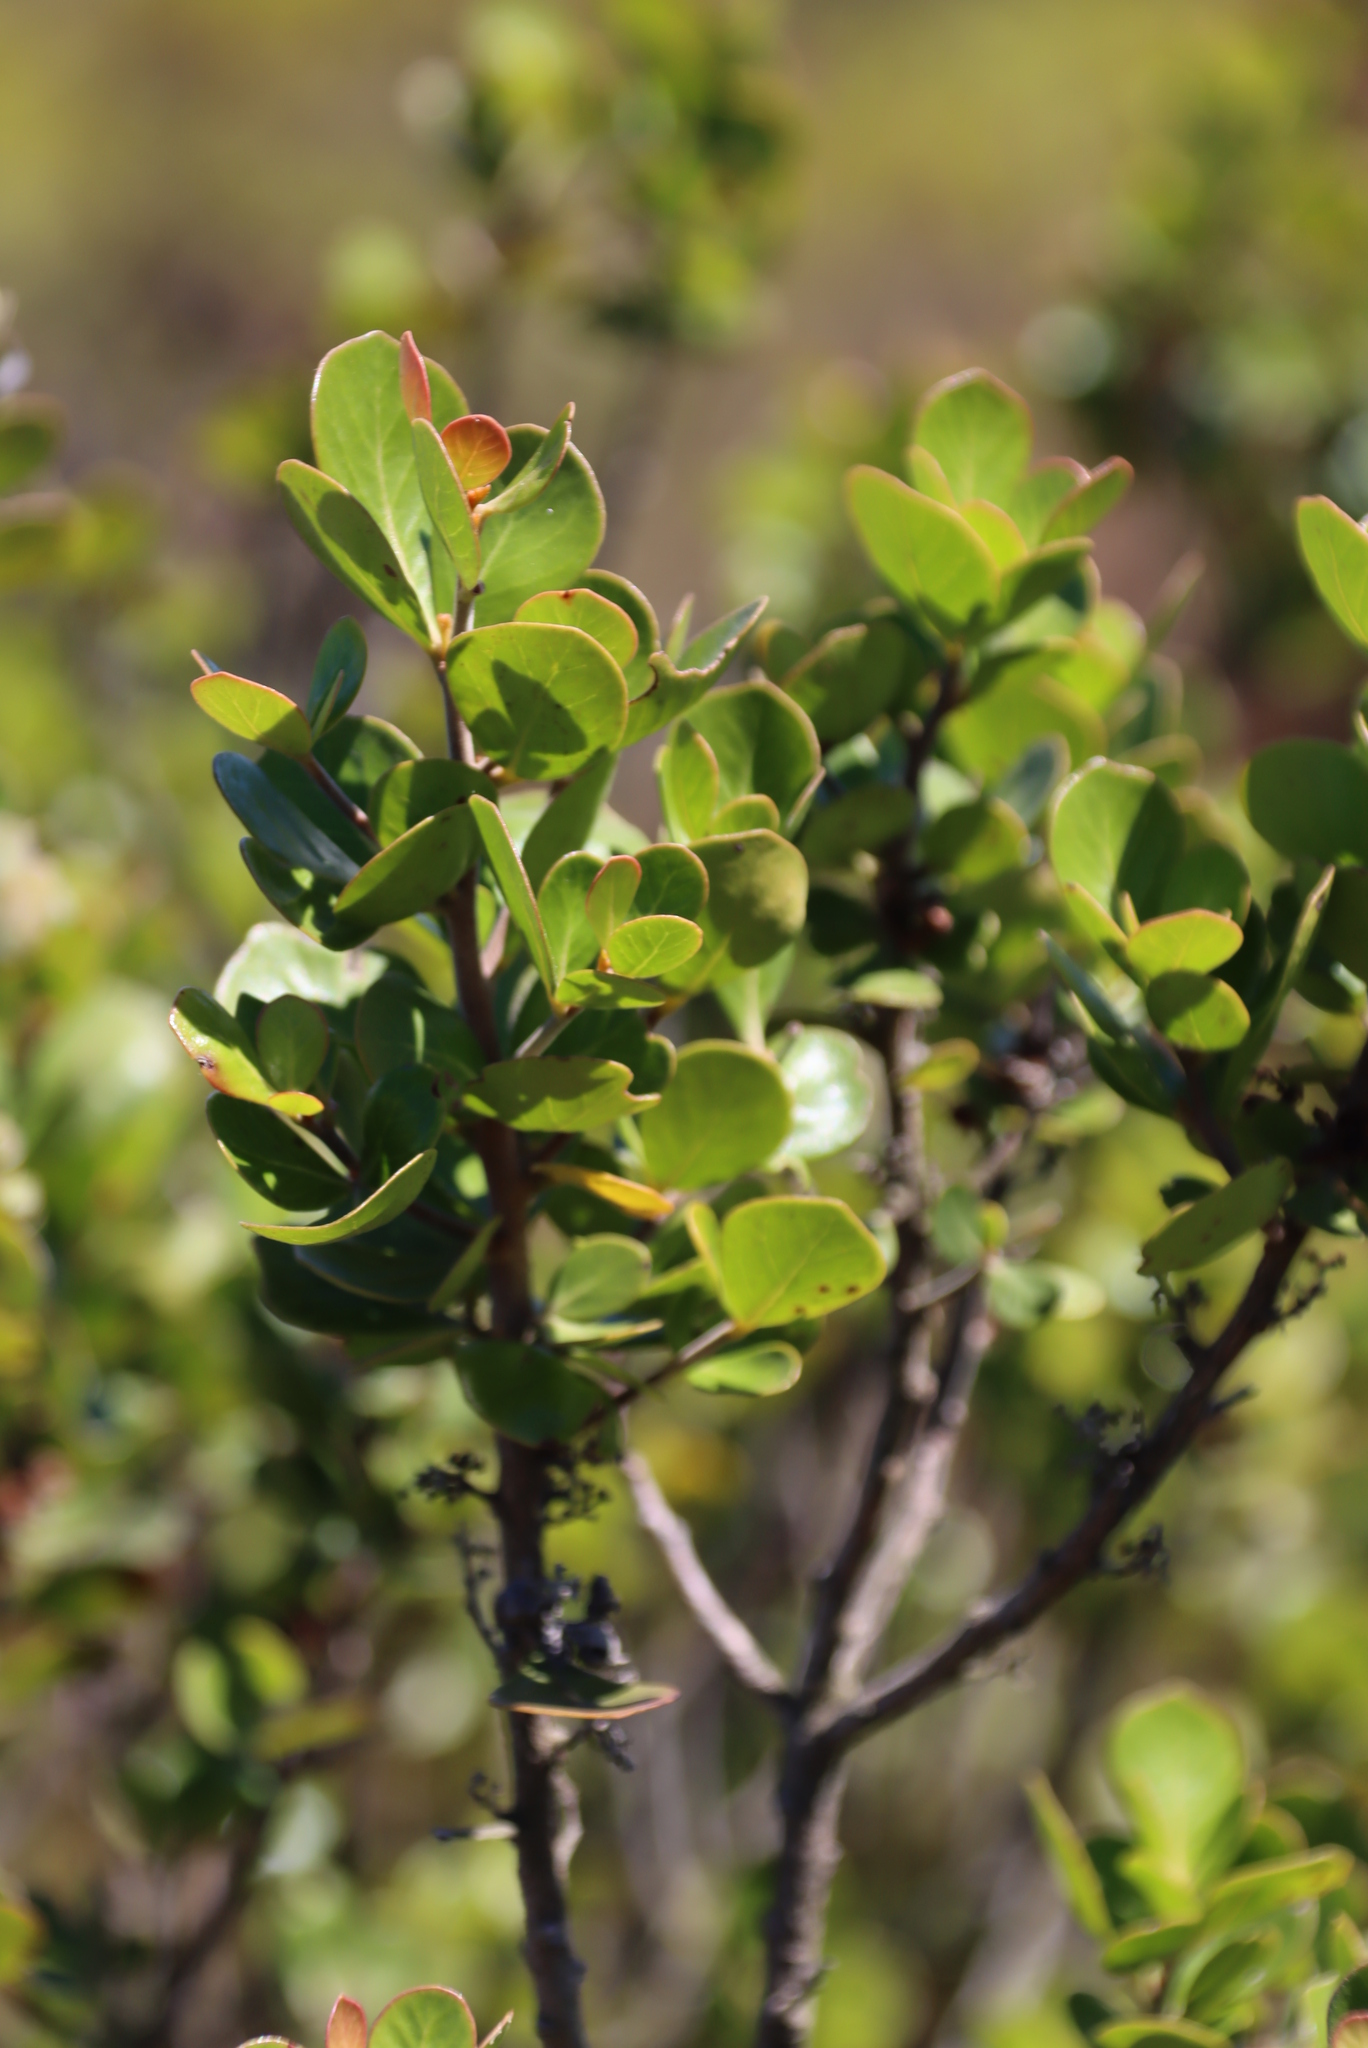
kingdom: Plantae
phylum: Tracheophyta
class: Magnoliopsida
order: Sapindales
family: Anacardiaceae
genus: Searsia
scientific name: Searsia lucida
